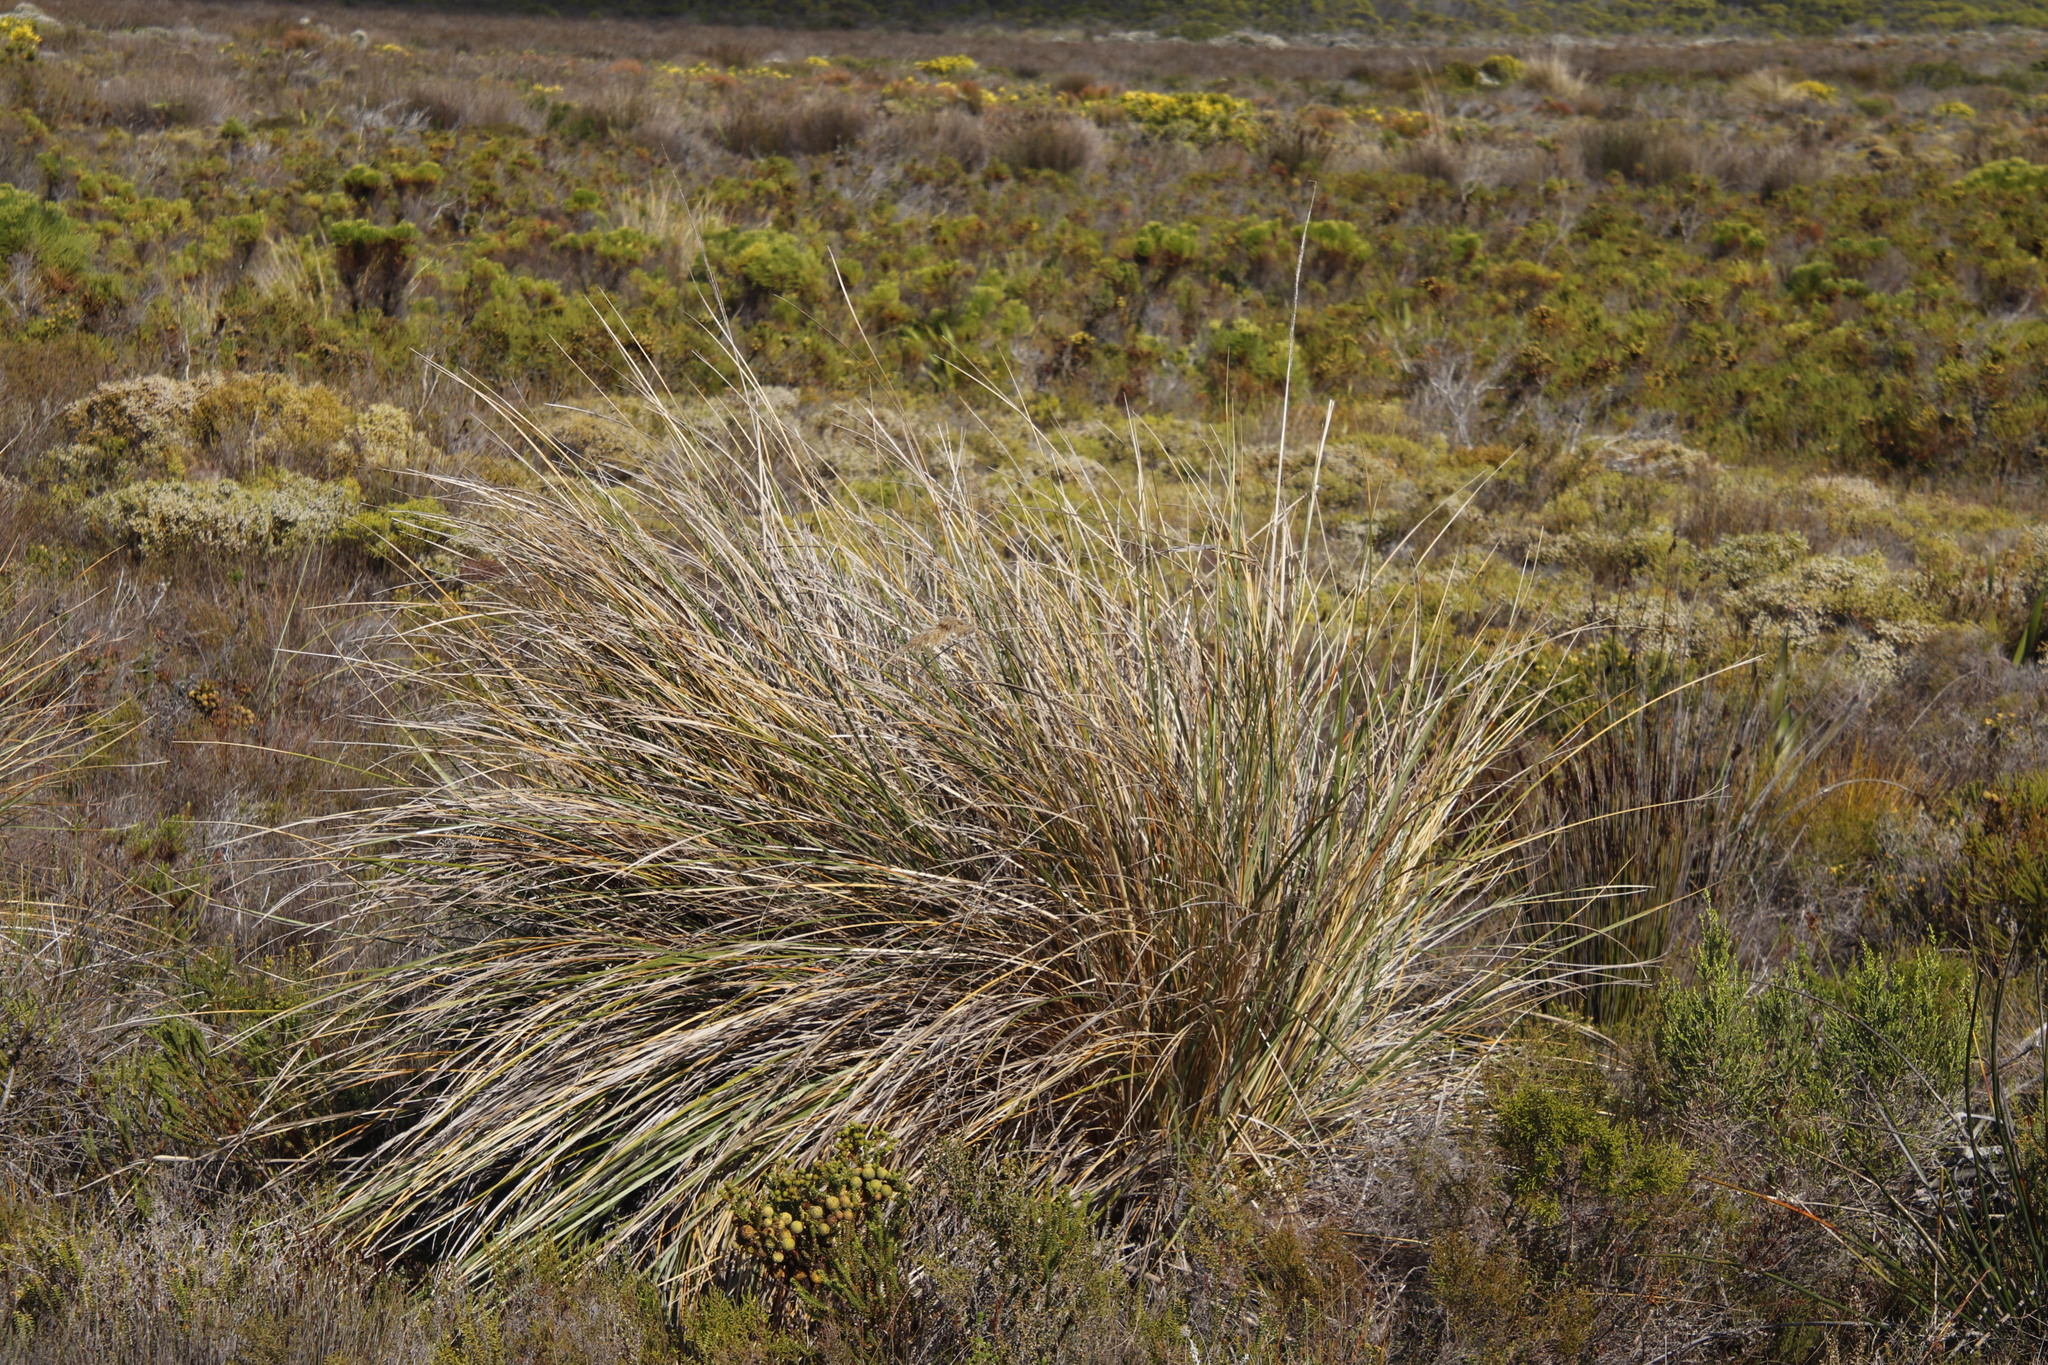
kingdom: Plantae
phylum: Tracheophyta
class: Liliopsida
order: Poales
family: Poaceae
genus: Capeochloa
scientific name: Capeochloa cincta
